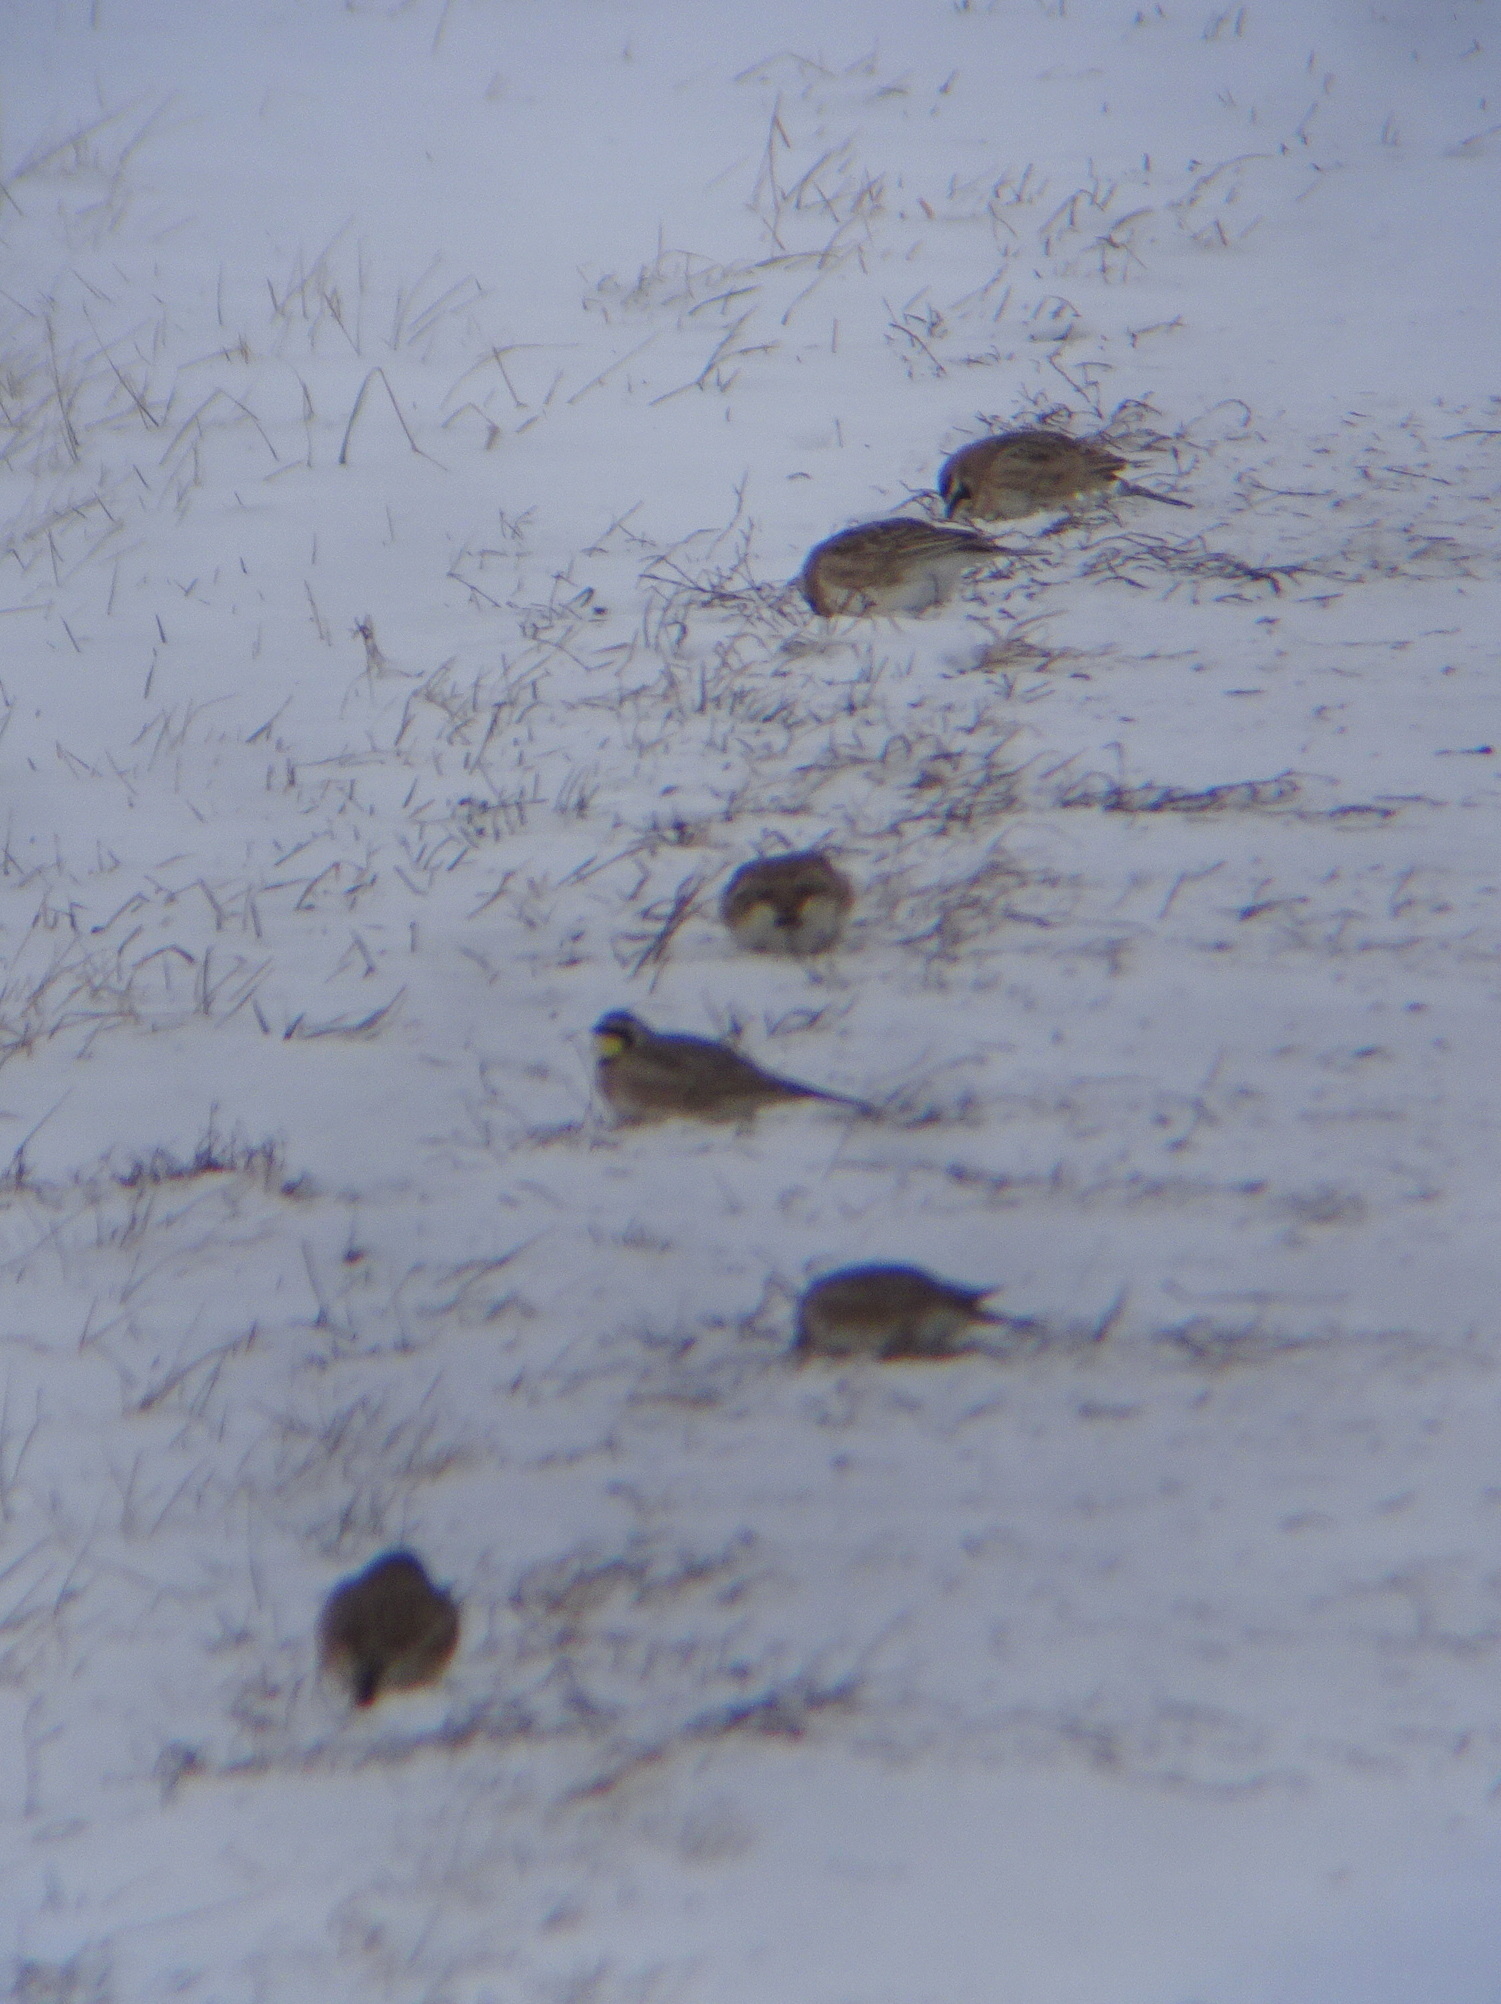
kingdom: Animalia
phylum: Chordata
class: Aves
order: Passeriformes
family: Alaudidae
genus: Eremophila
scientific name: Eremophila alpestris
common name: Horned lark
